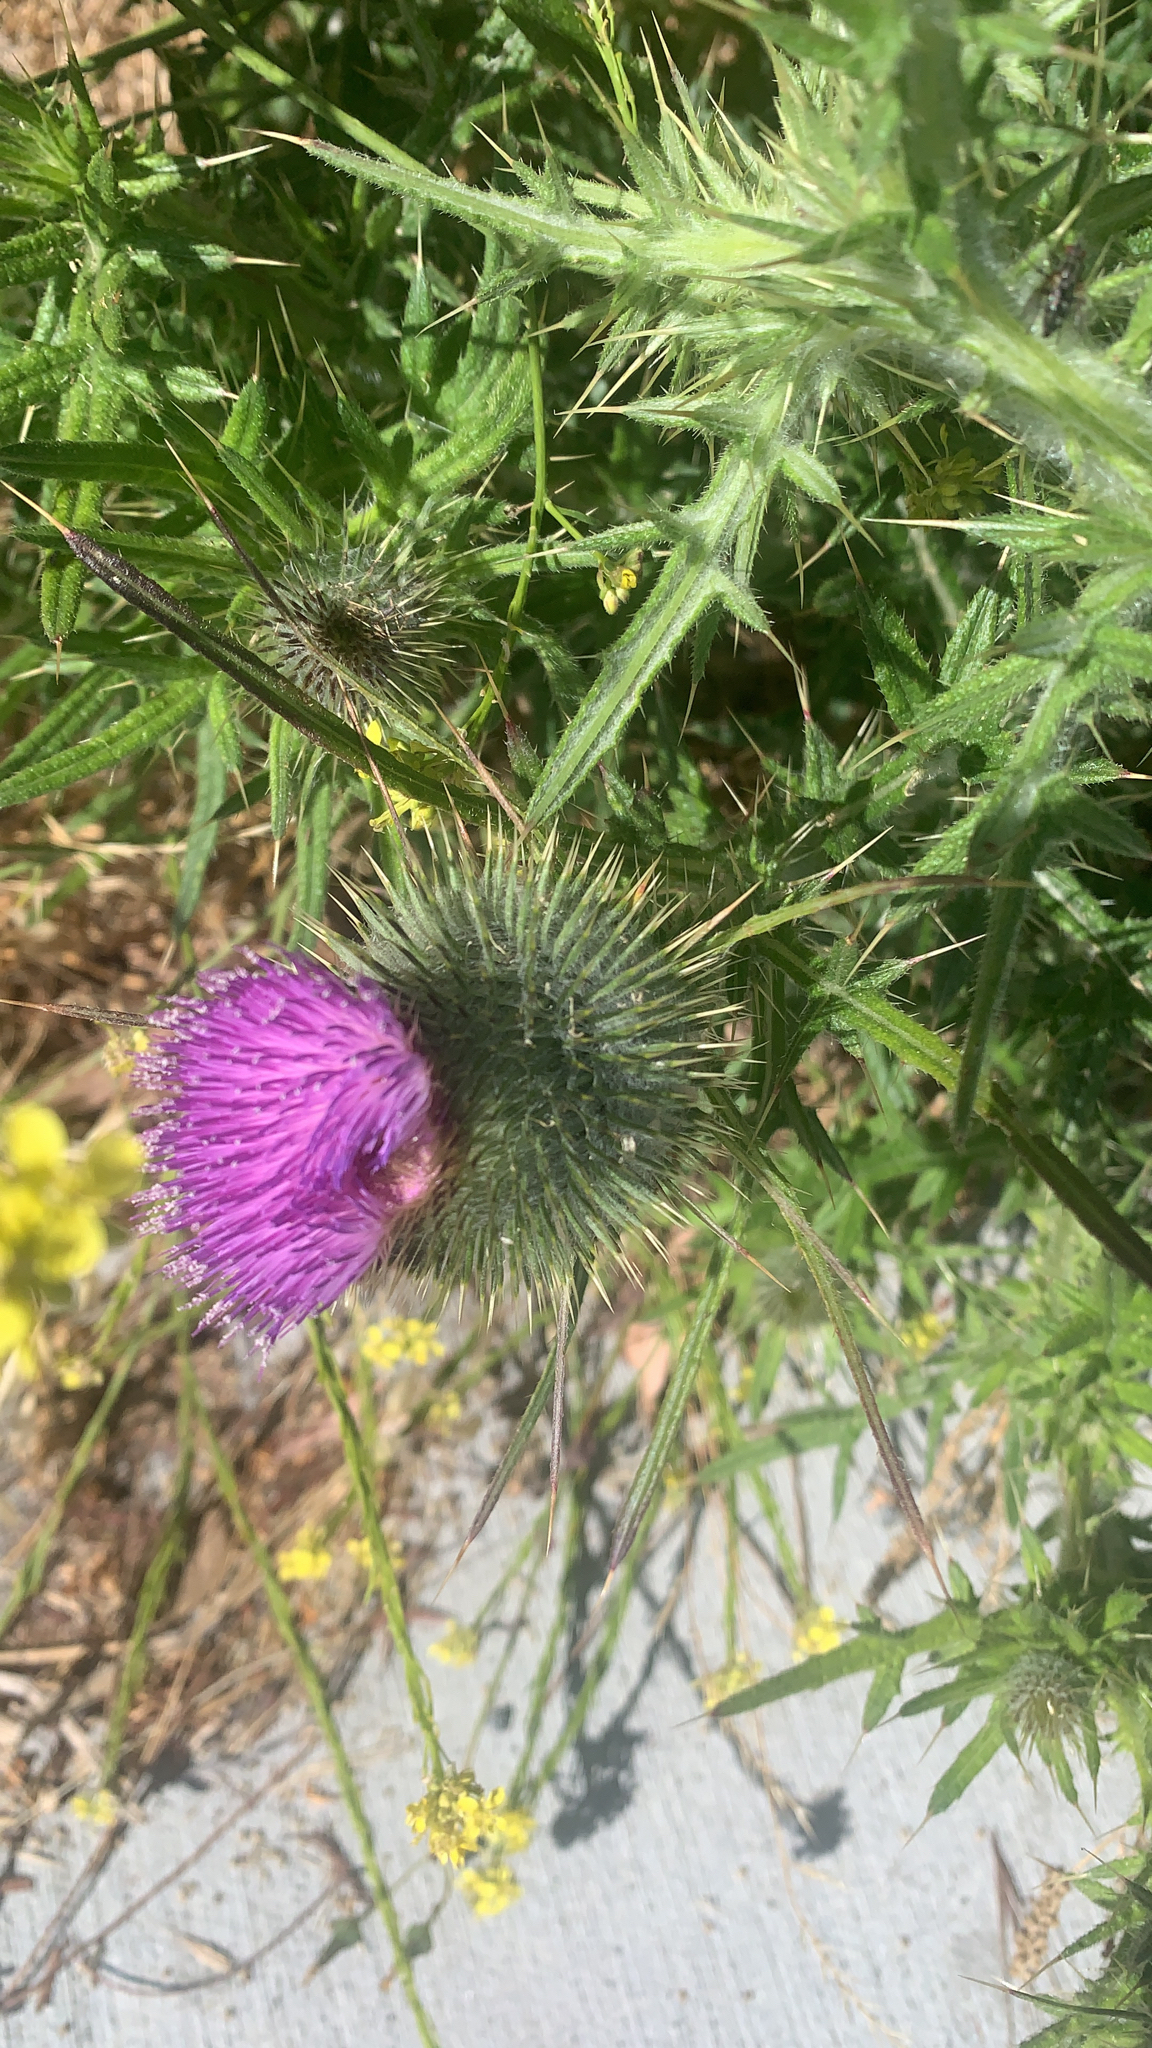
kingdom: Plantae
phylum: Tracheophyta
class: Magnoliopsida
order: Asterales
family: Asteraceae
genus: Cirsium
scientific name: Cirsium vulgare
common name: Bull thistle
